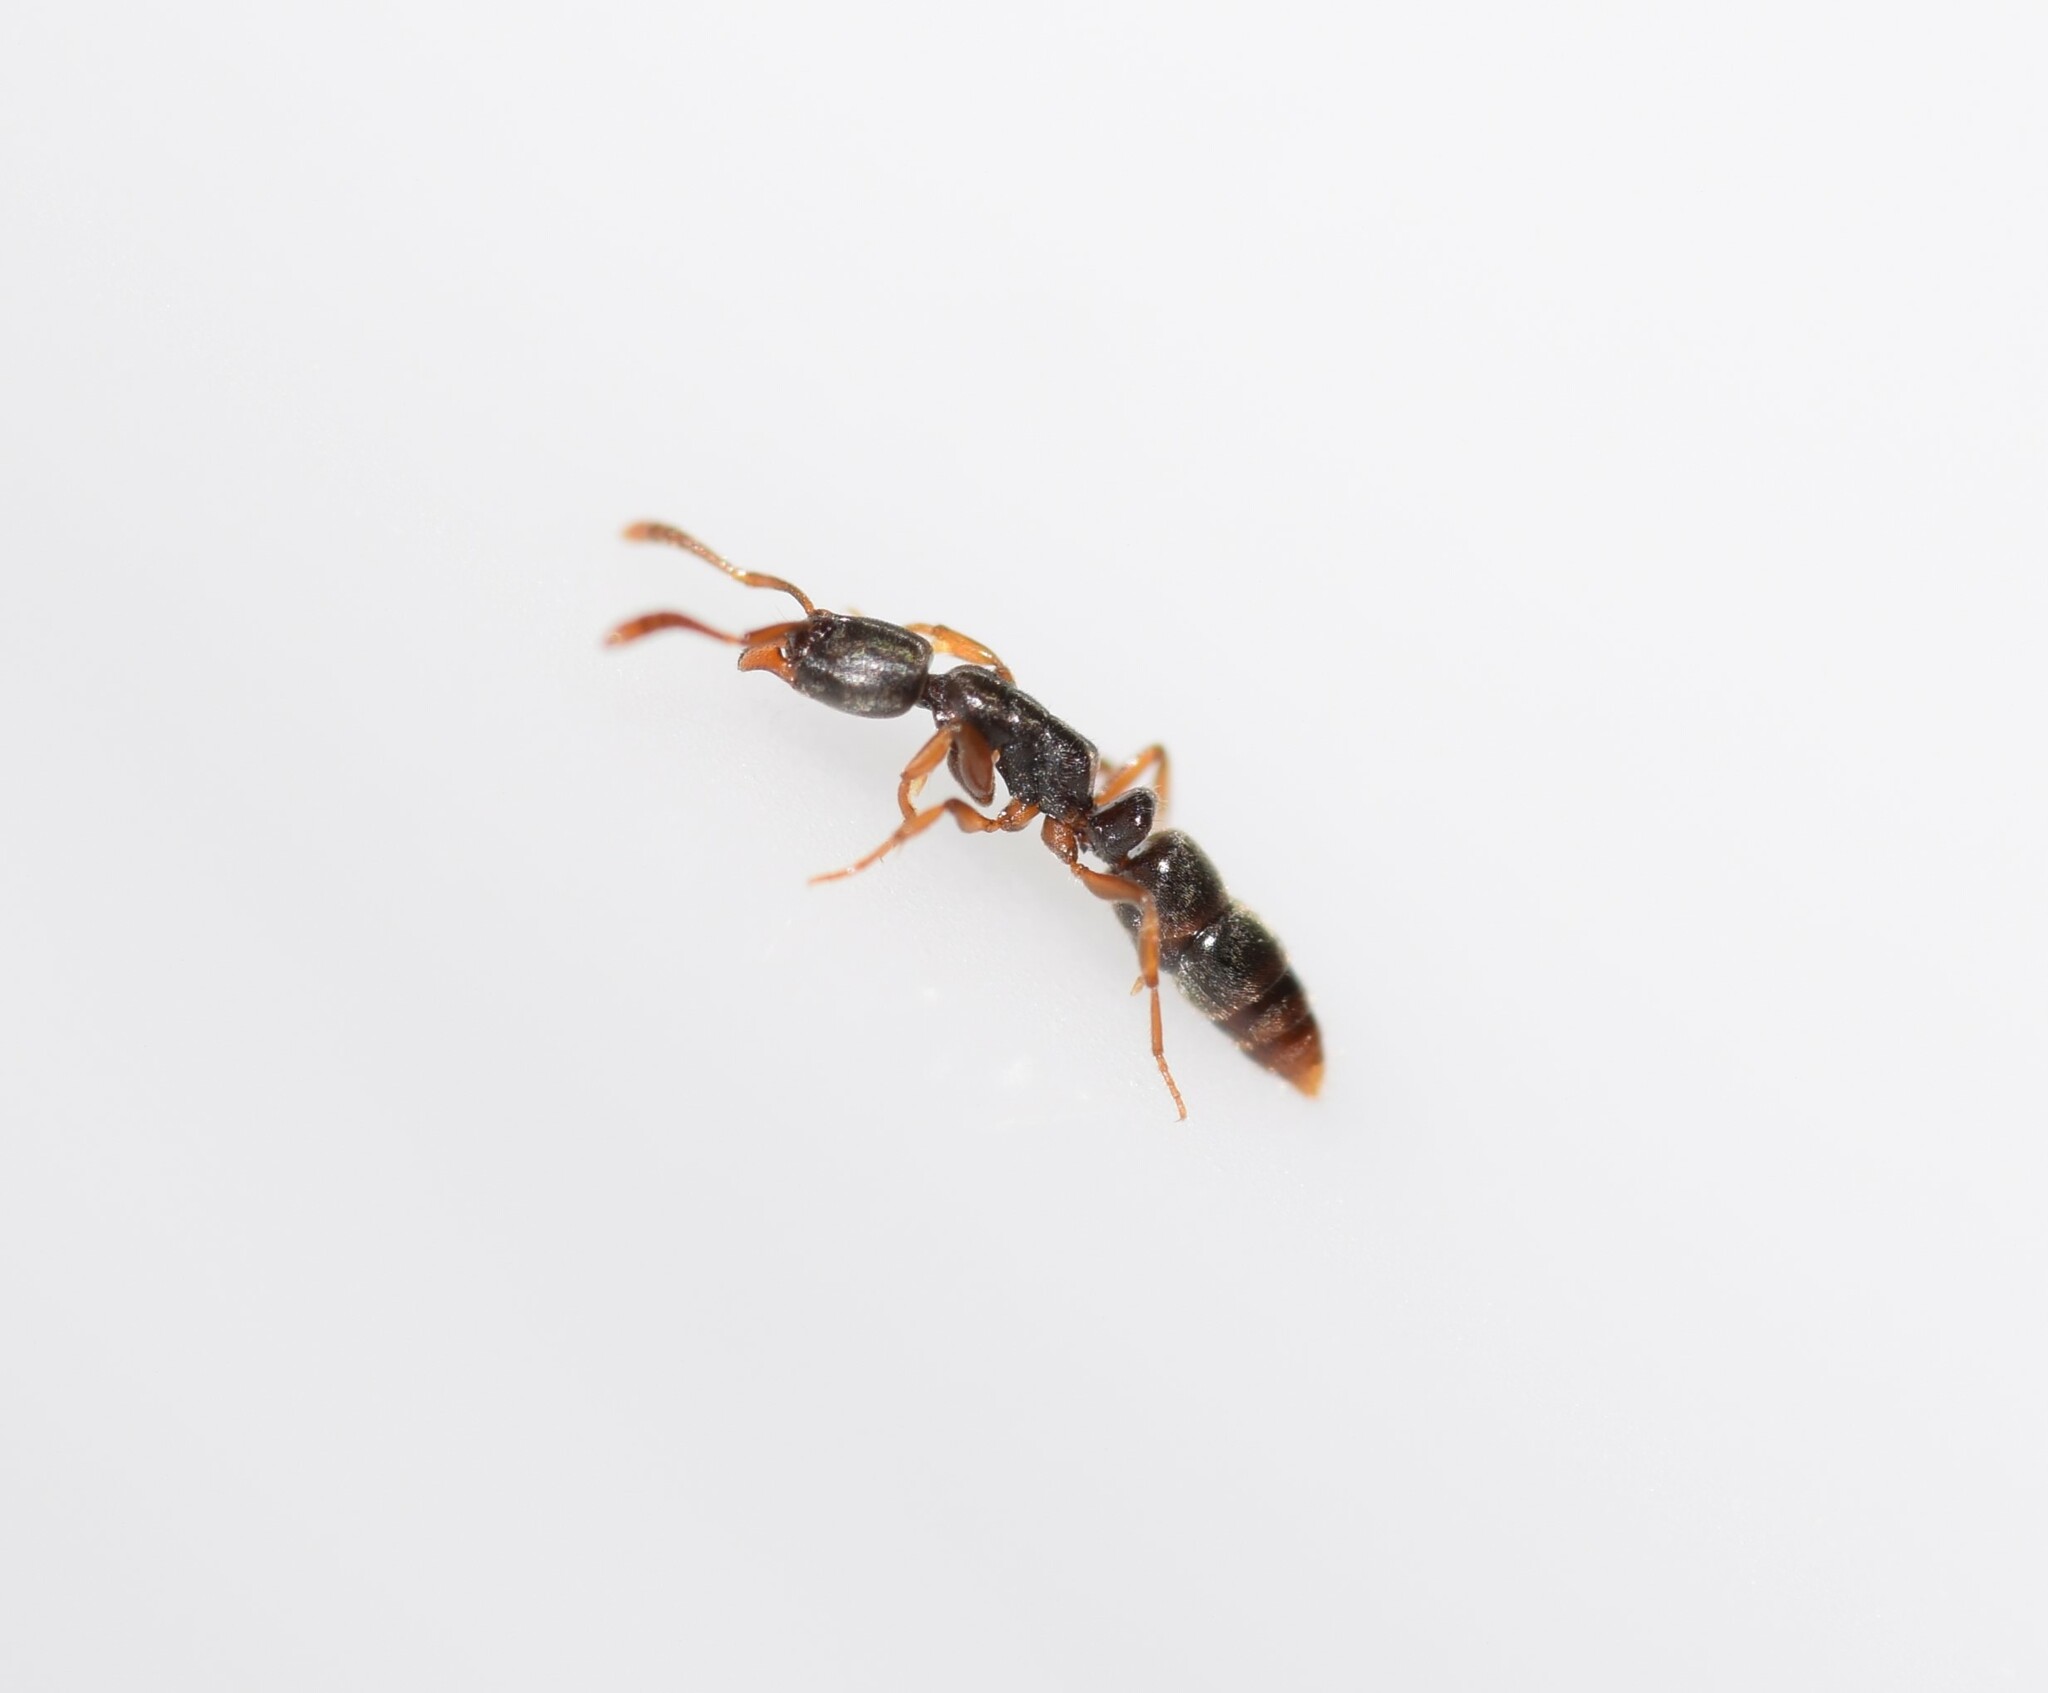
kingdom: Animalia
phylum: Arthropoda
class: Insecta
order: Hymenoptera
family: Formicidae
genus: Ponera
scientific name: Ponera pennsylvanica
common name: Pennsylvania ponera
